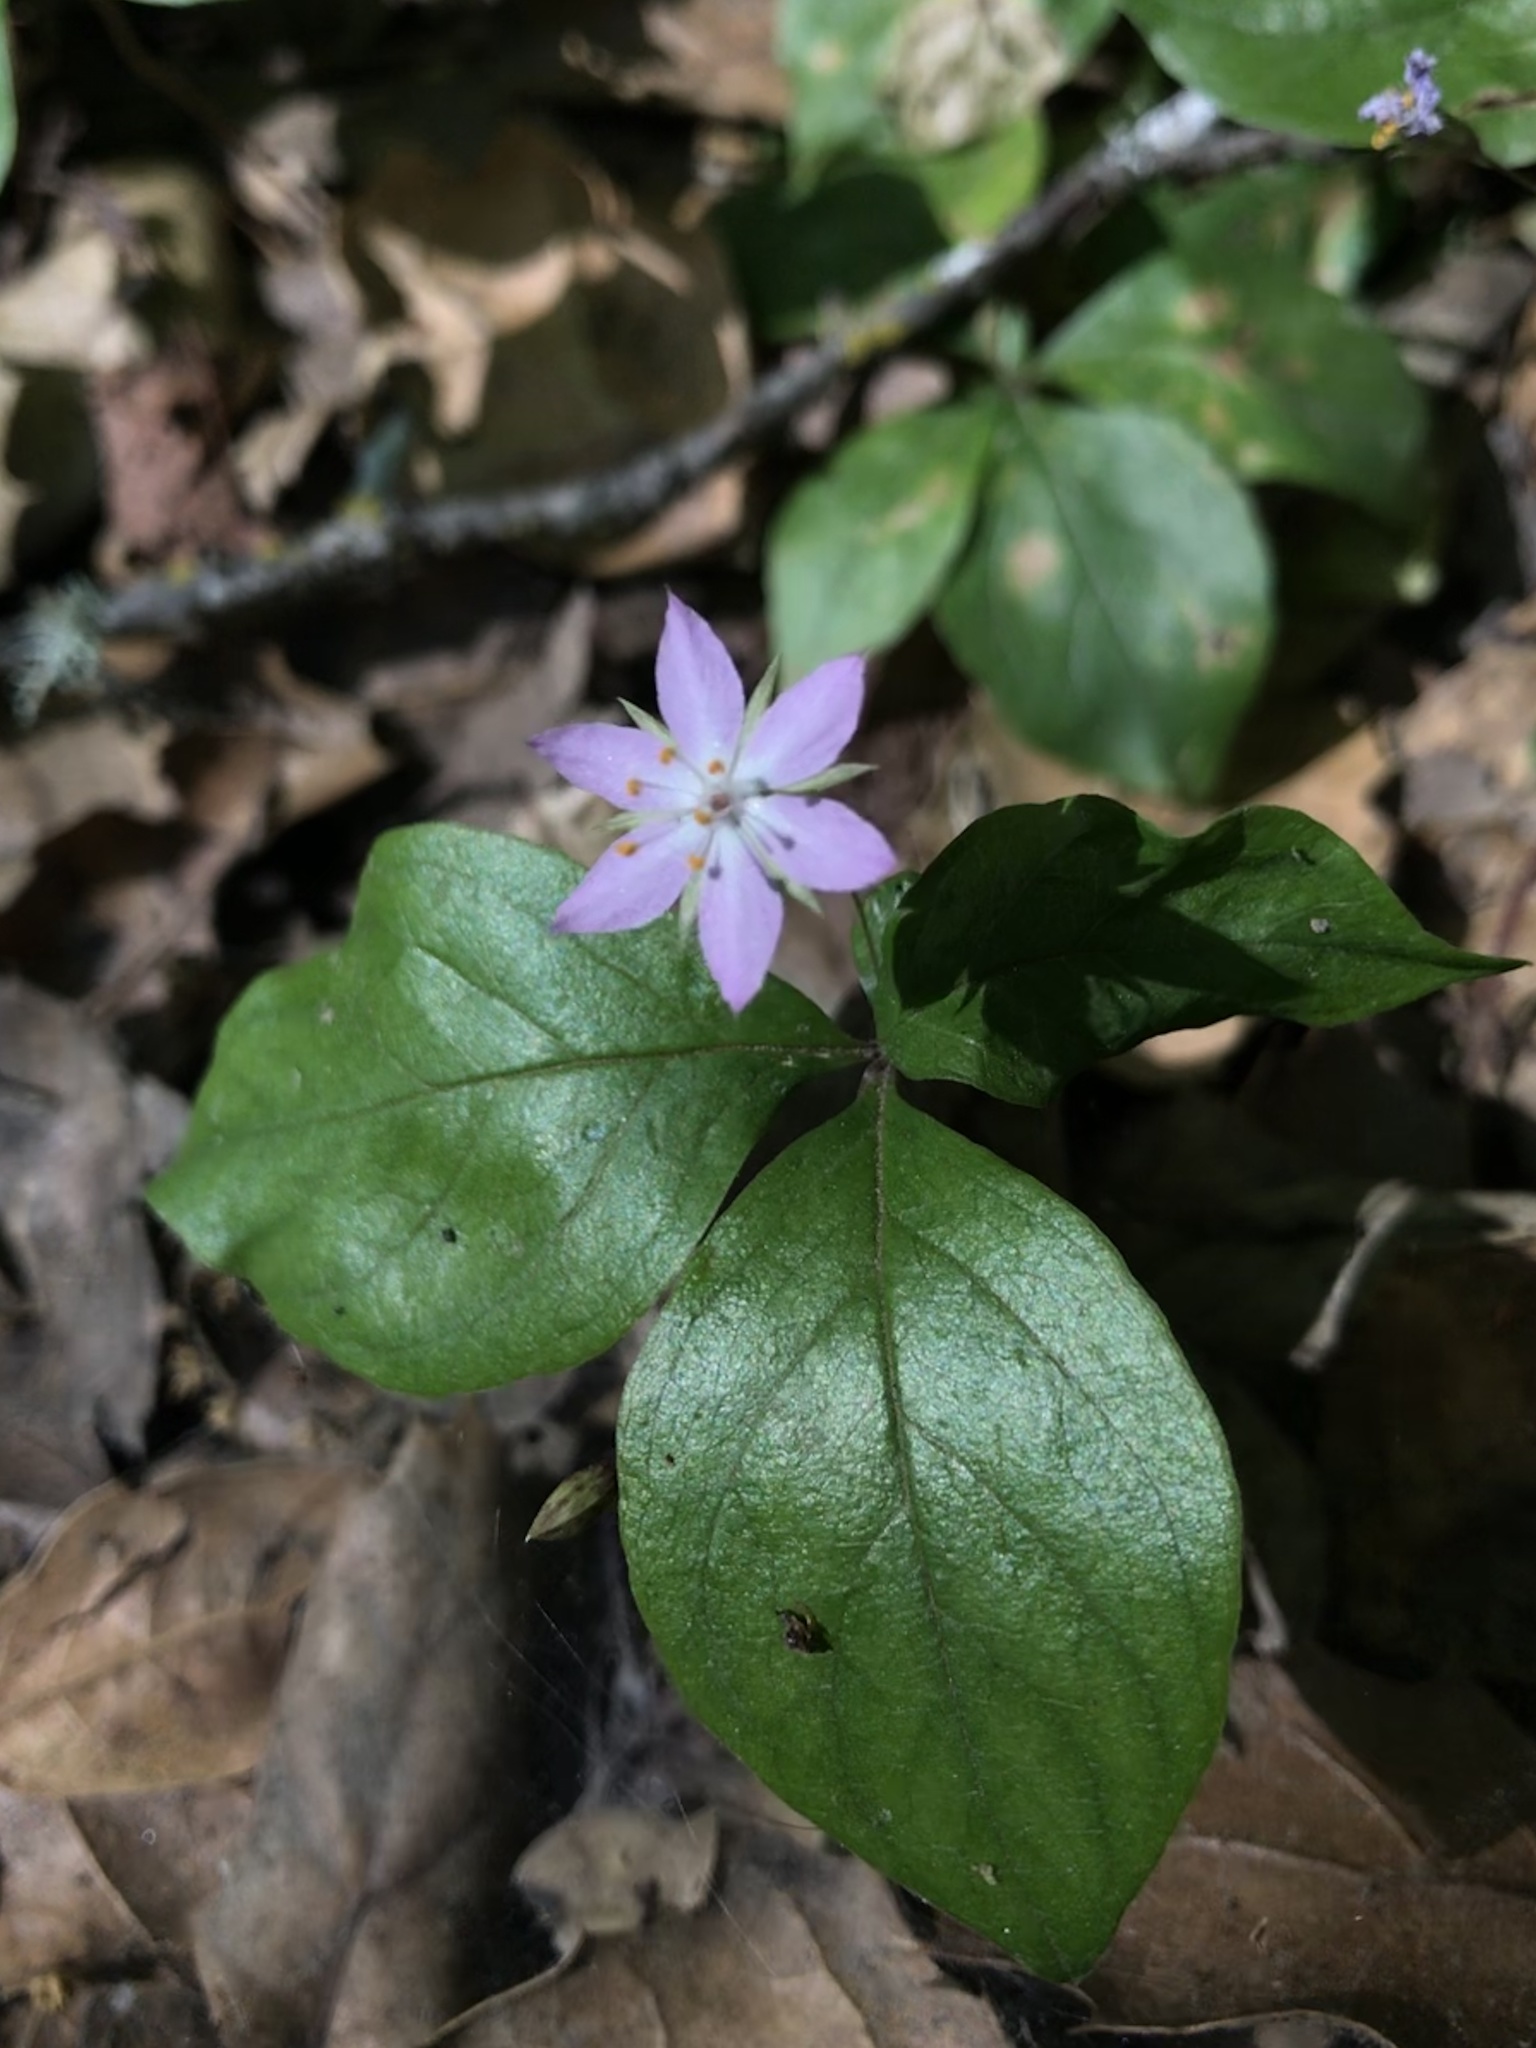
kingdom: Plantae
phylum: Tracheophyta
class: Magnoliopsida
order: Ericales
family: Primulaceae
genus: Lysimachia
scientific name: Lysimachia latifolia
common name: Pacific starflower
